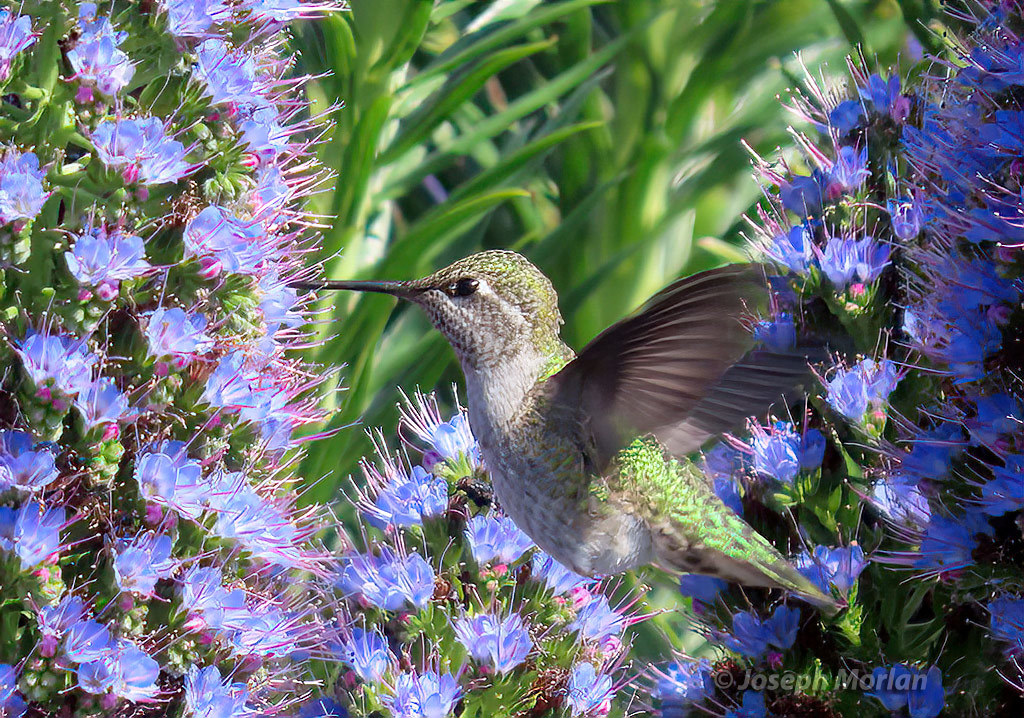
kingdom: Animalia
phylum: Chordata
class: Aves
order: Apodiformes
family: Trochilidae
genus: Calypte
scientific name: Calypte anna
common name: Anna's hummingbird
